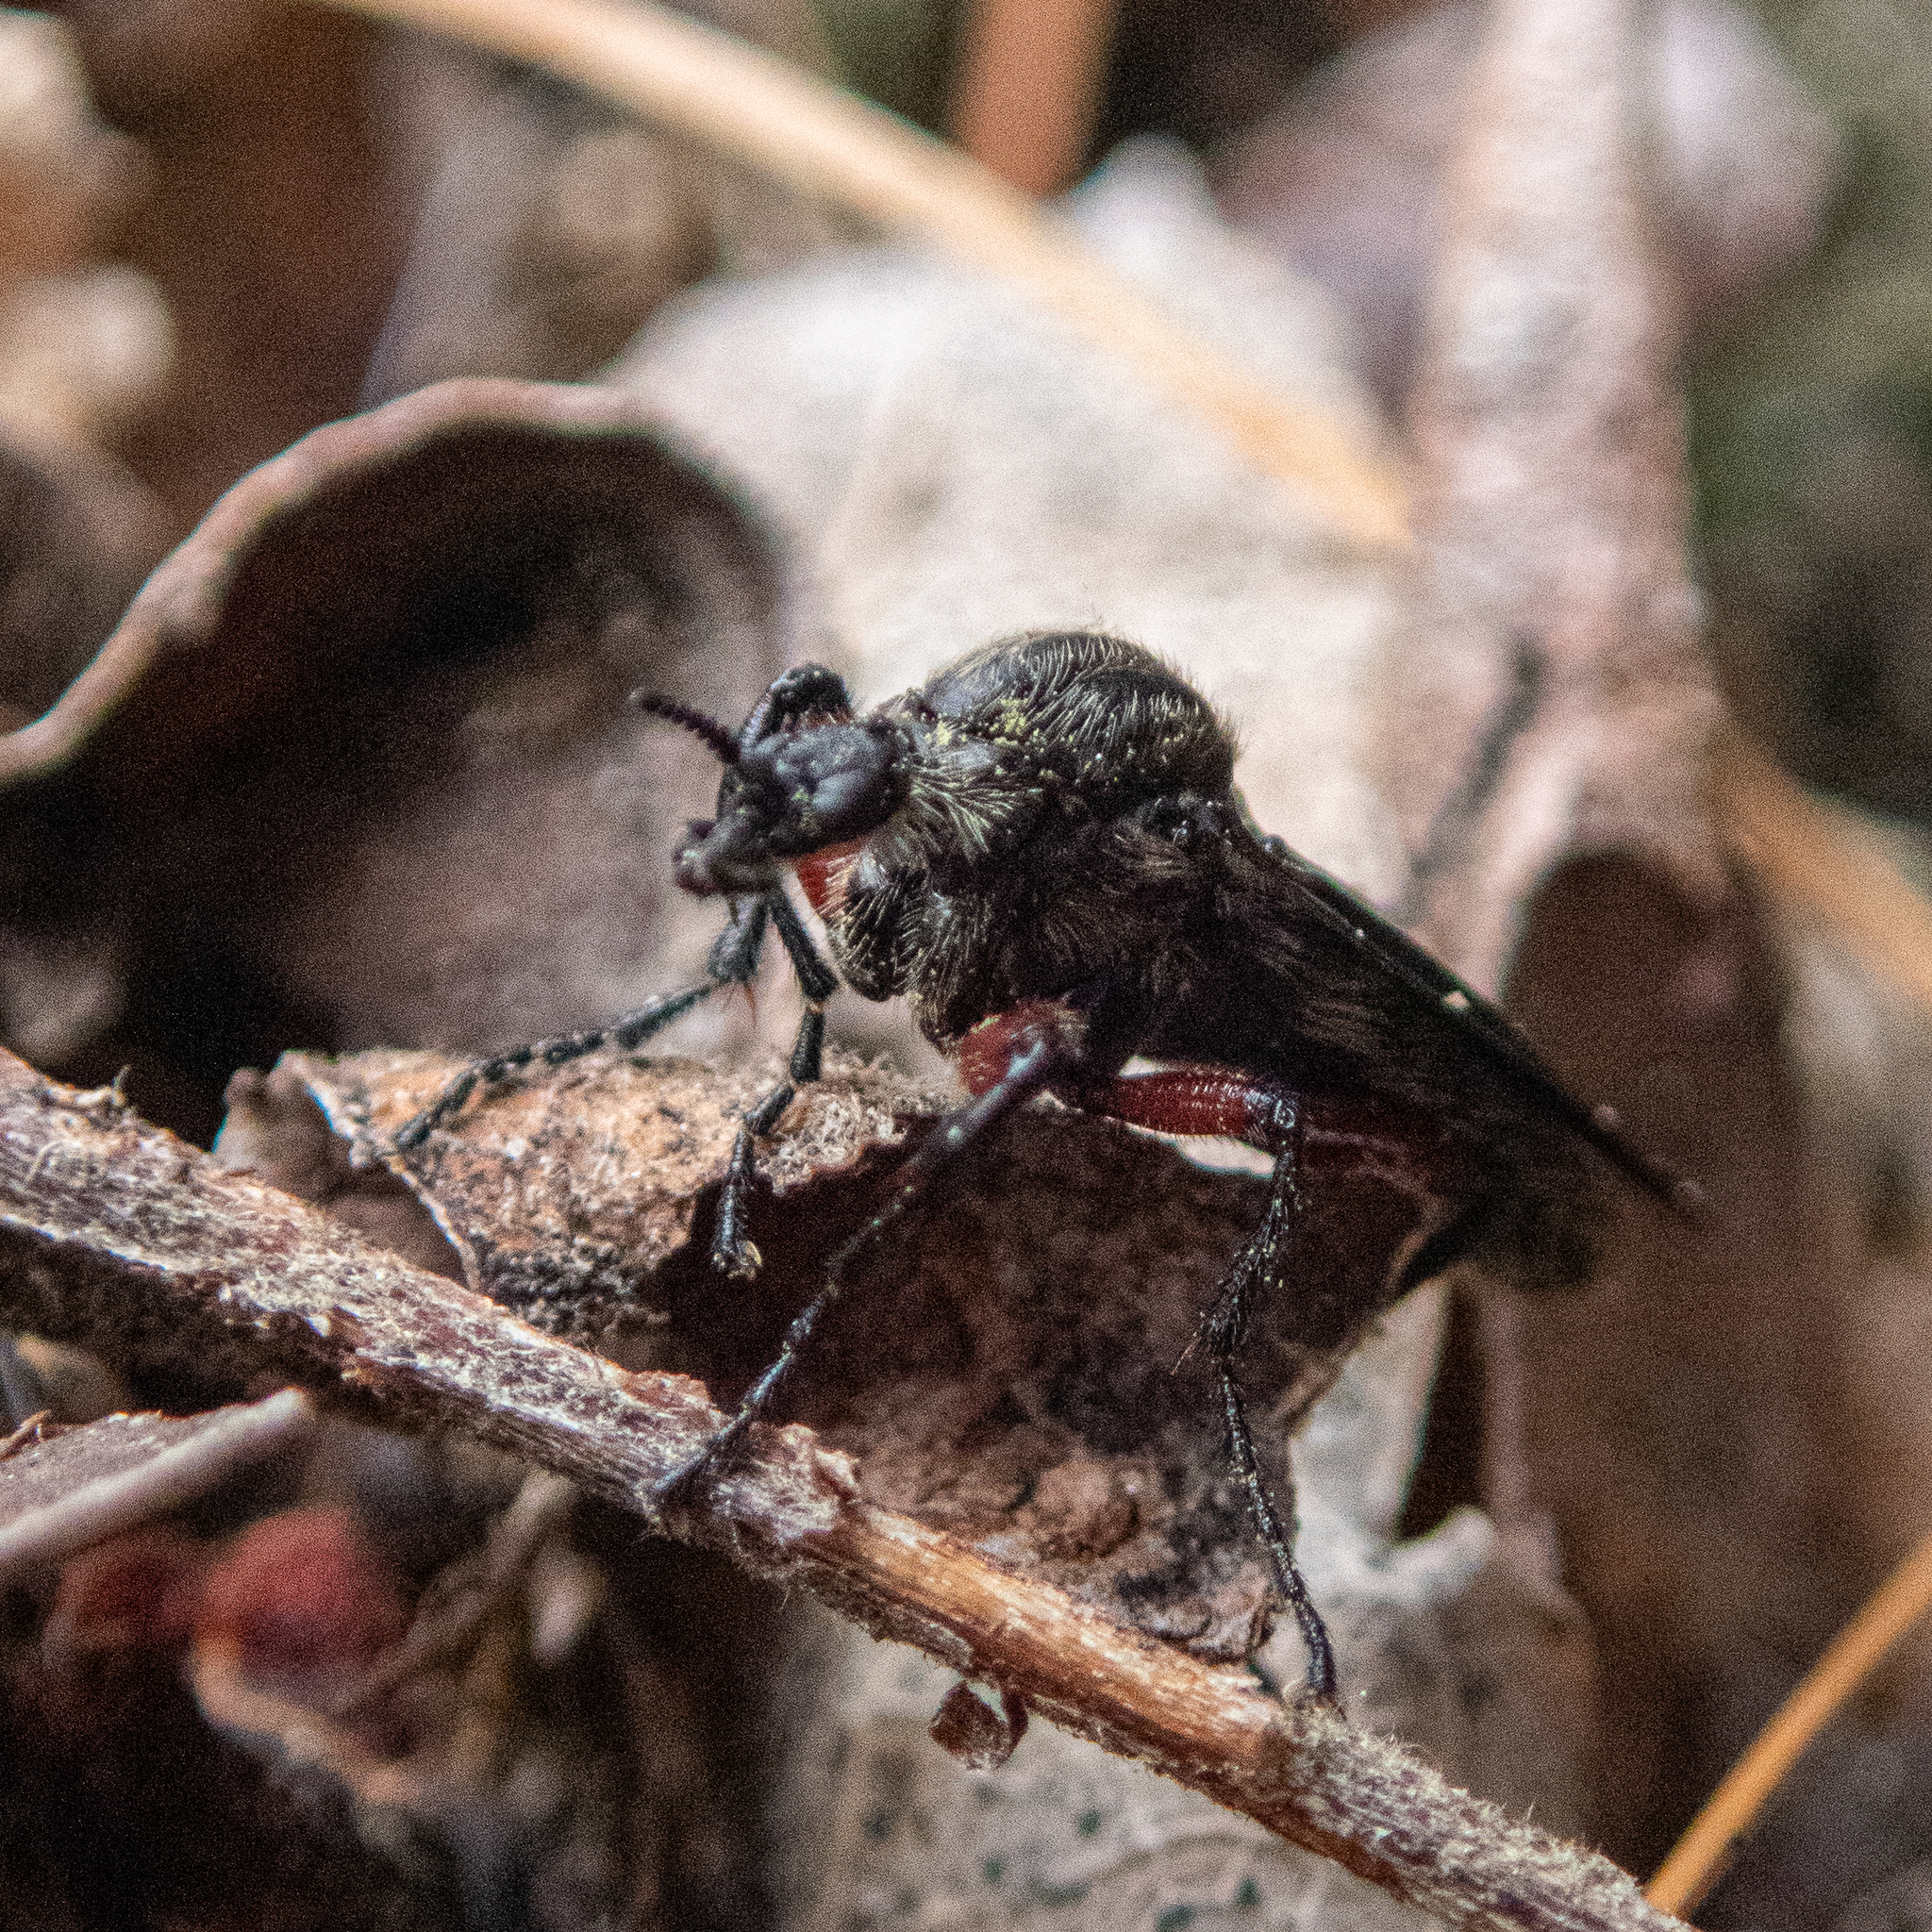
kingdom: Animalia
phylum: Arthropoda
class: Insecta
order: Diptera
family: Bibionidae
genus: Bibio
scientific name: Bibio femoratus
